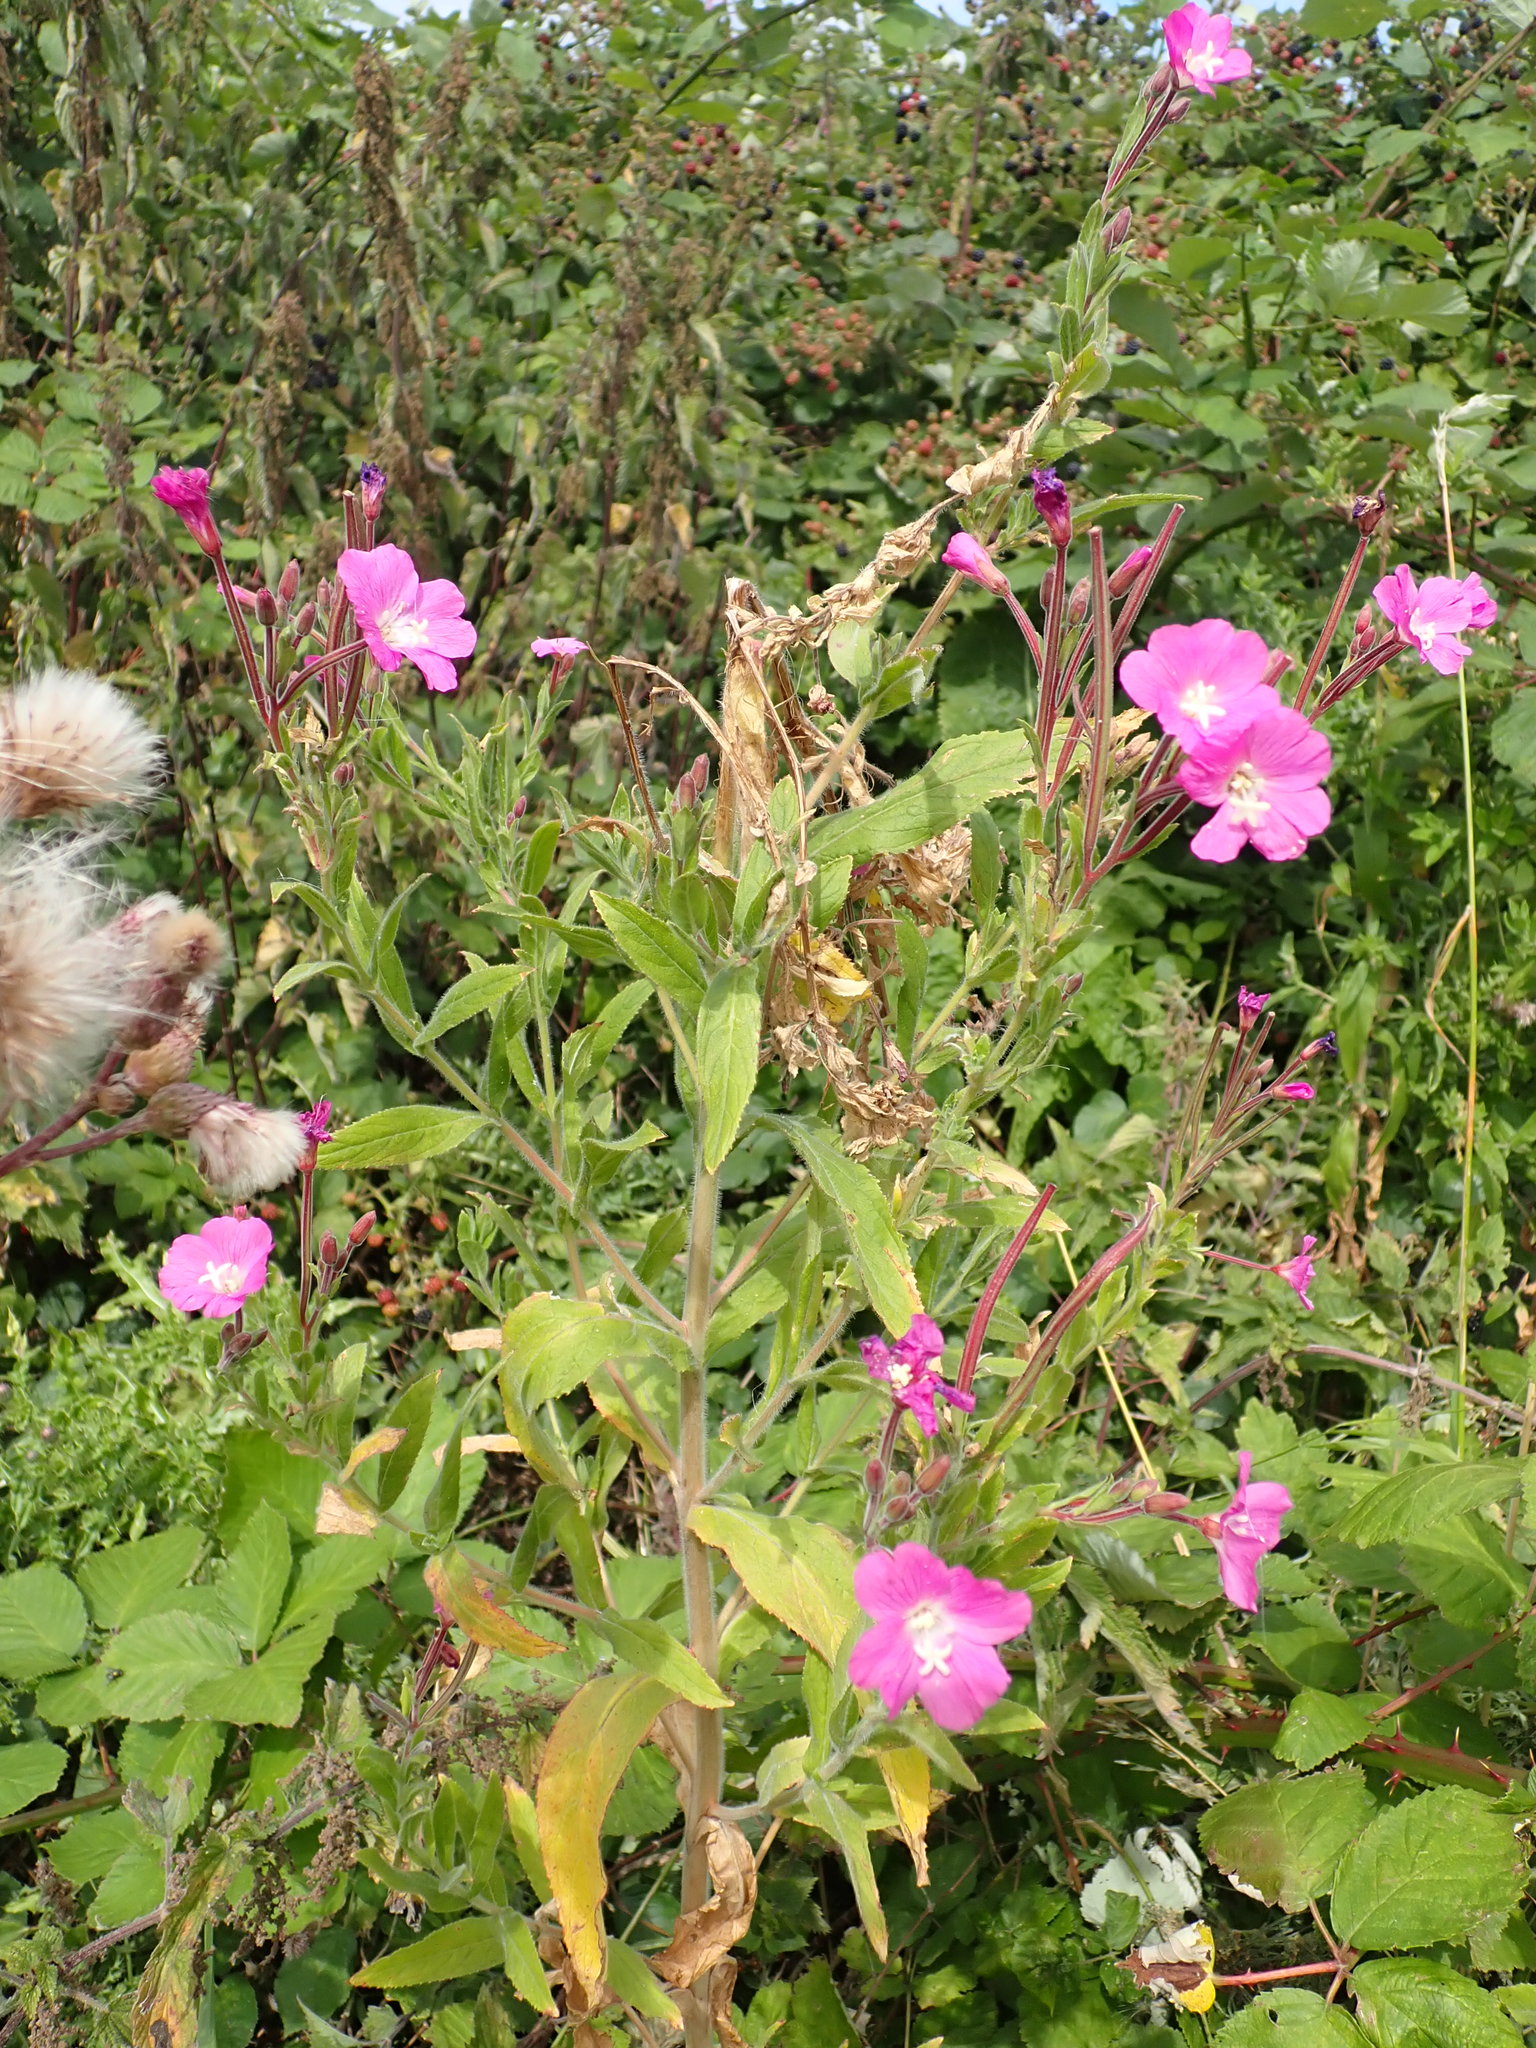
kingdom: Plantae
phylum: Tracheophyta
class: Magnoliopsida
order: Myrtales
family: Onagraceae
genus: Epilobium
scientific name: Epilobium hirsutum
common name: Great willowherb
